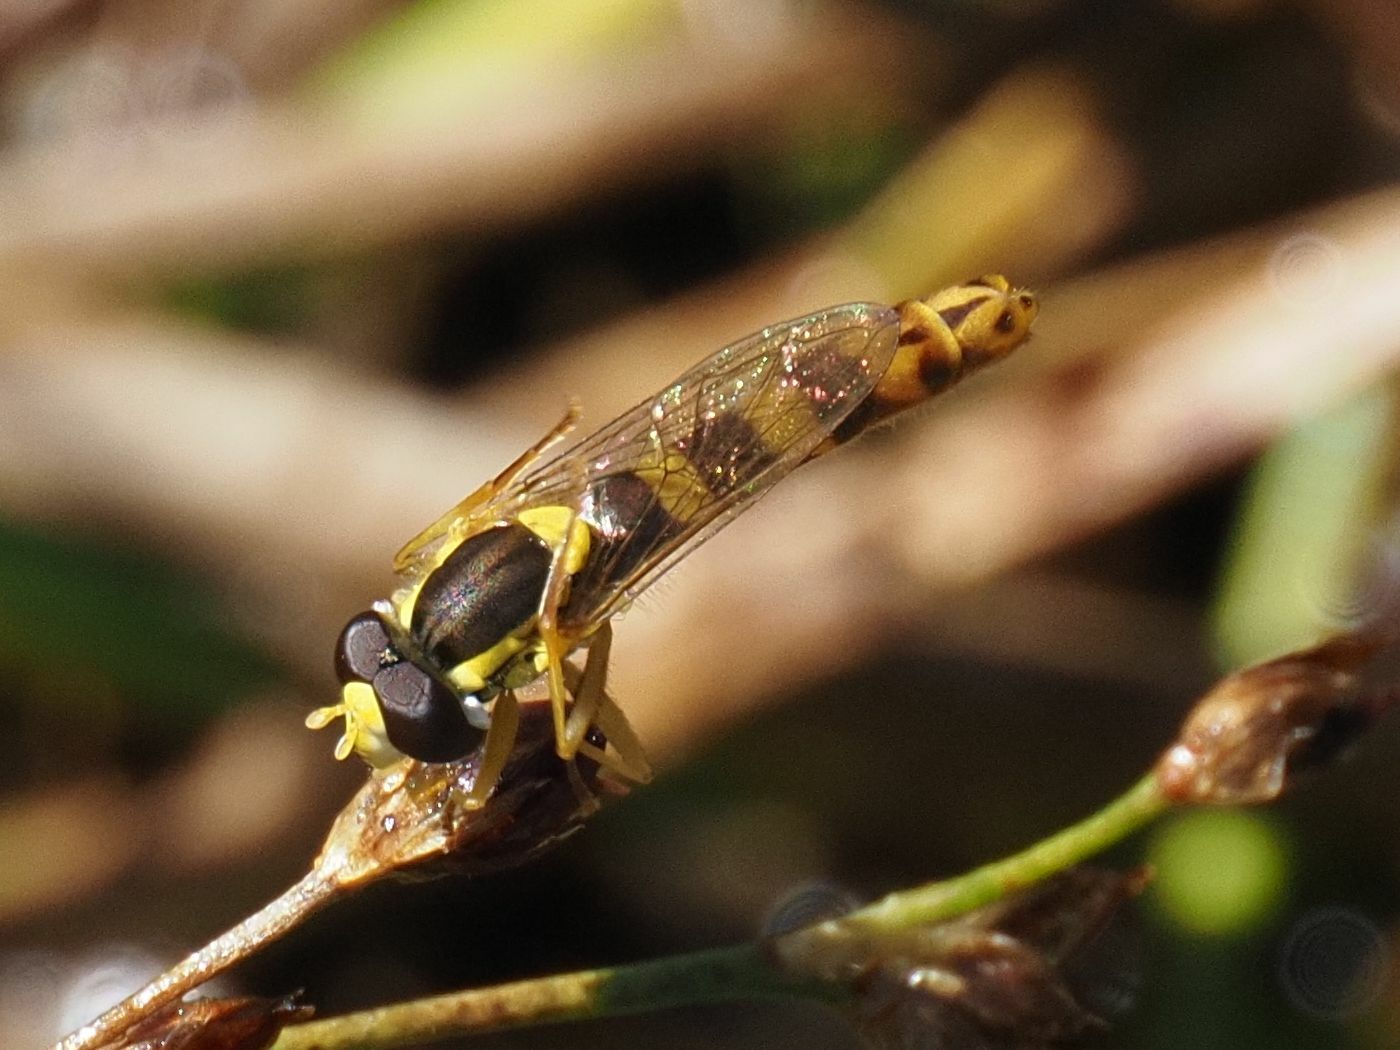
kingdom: Animalia
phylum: Arthropoda
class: Insecta
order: Diptera
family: Syrphidae
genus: Sphaerophoria
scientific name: Sphaerophoria scripta
